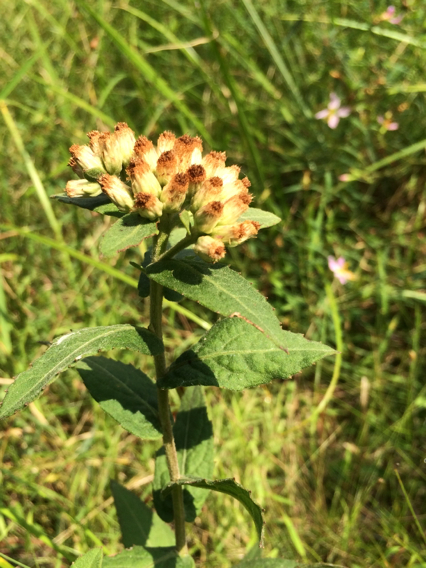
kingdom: Plantae
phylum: Tracheophyta
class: Magnoliopsida
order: Asterales
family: Asteraceae
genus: Pluchea
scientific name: Pluchea foetida
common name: Stinking camphorweed
